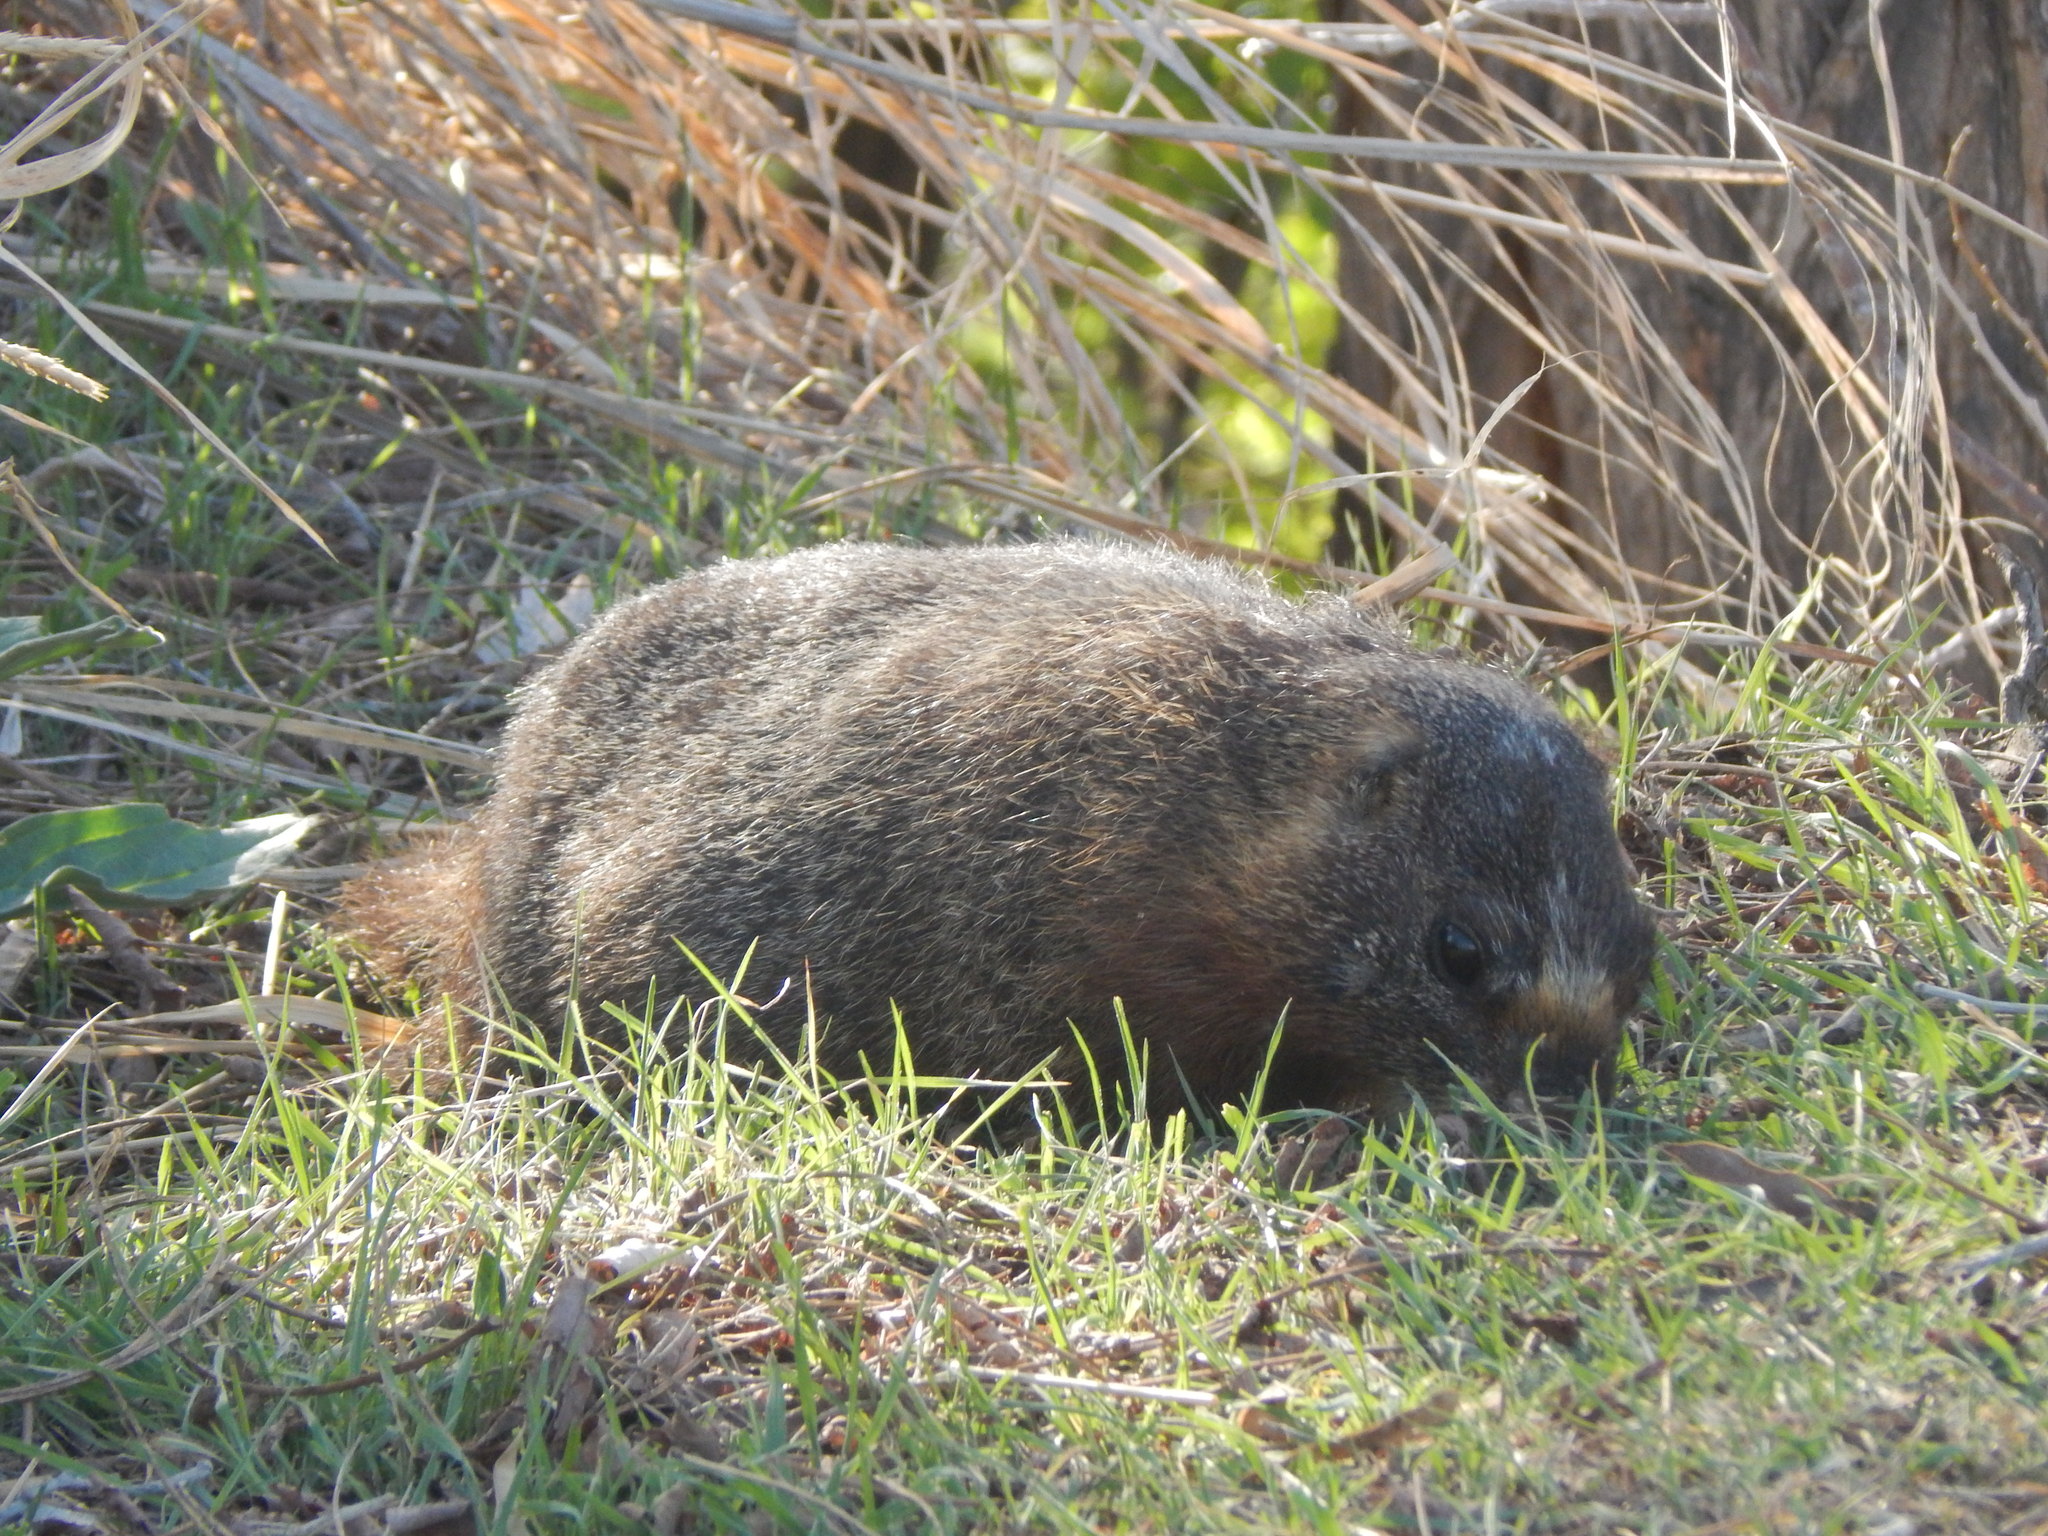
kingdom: Animalia
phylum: Chordata
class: Mammalia
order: Rodentia
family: Sciuridae
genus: Marmota
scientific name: Marmota flaviventris
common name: Yellow-bellied marmot
